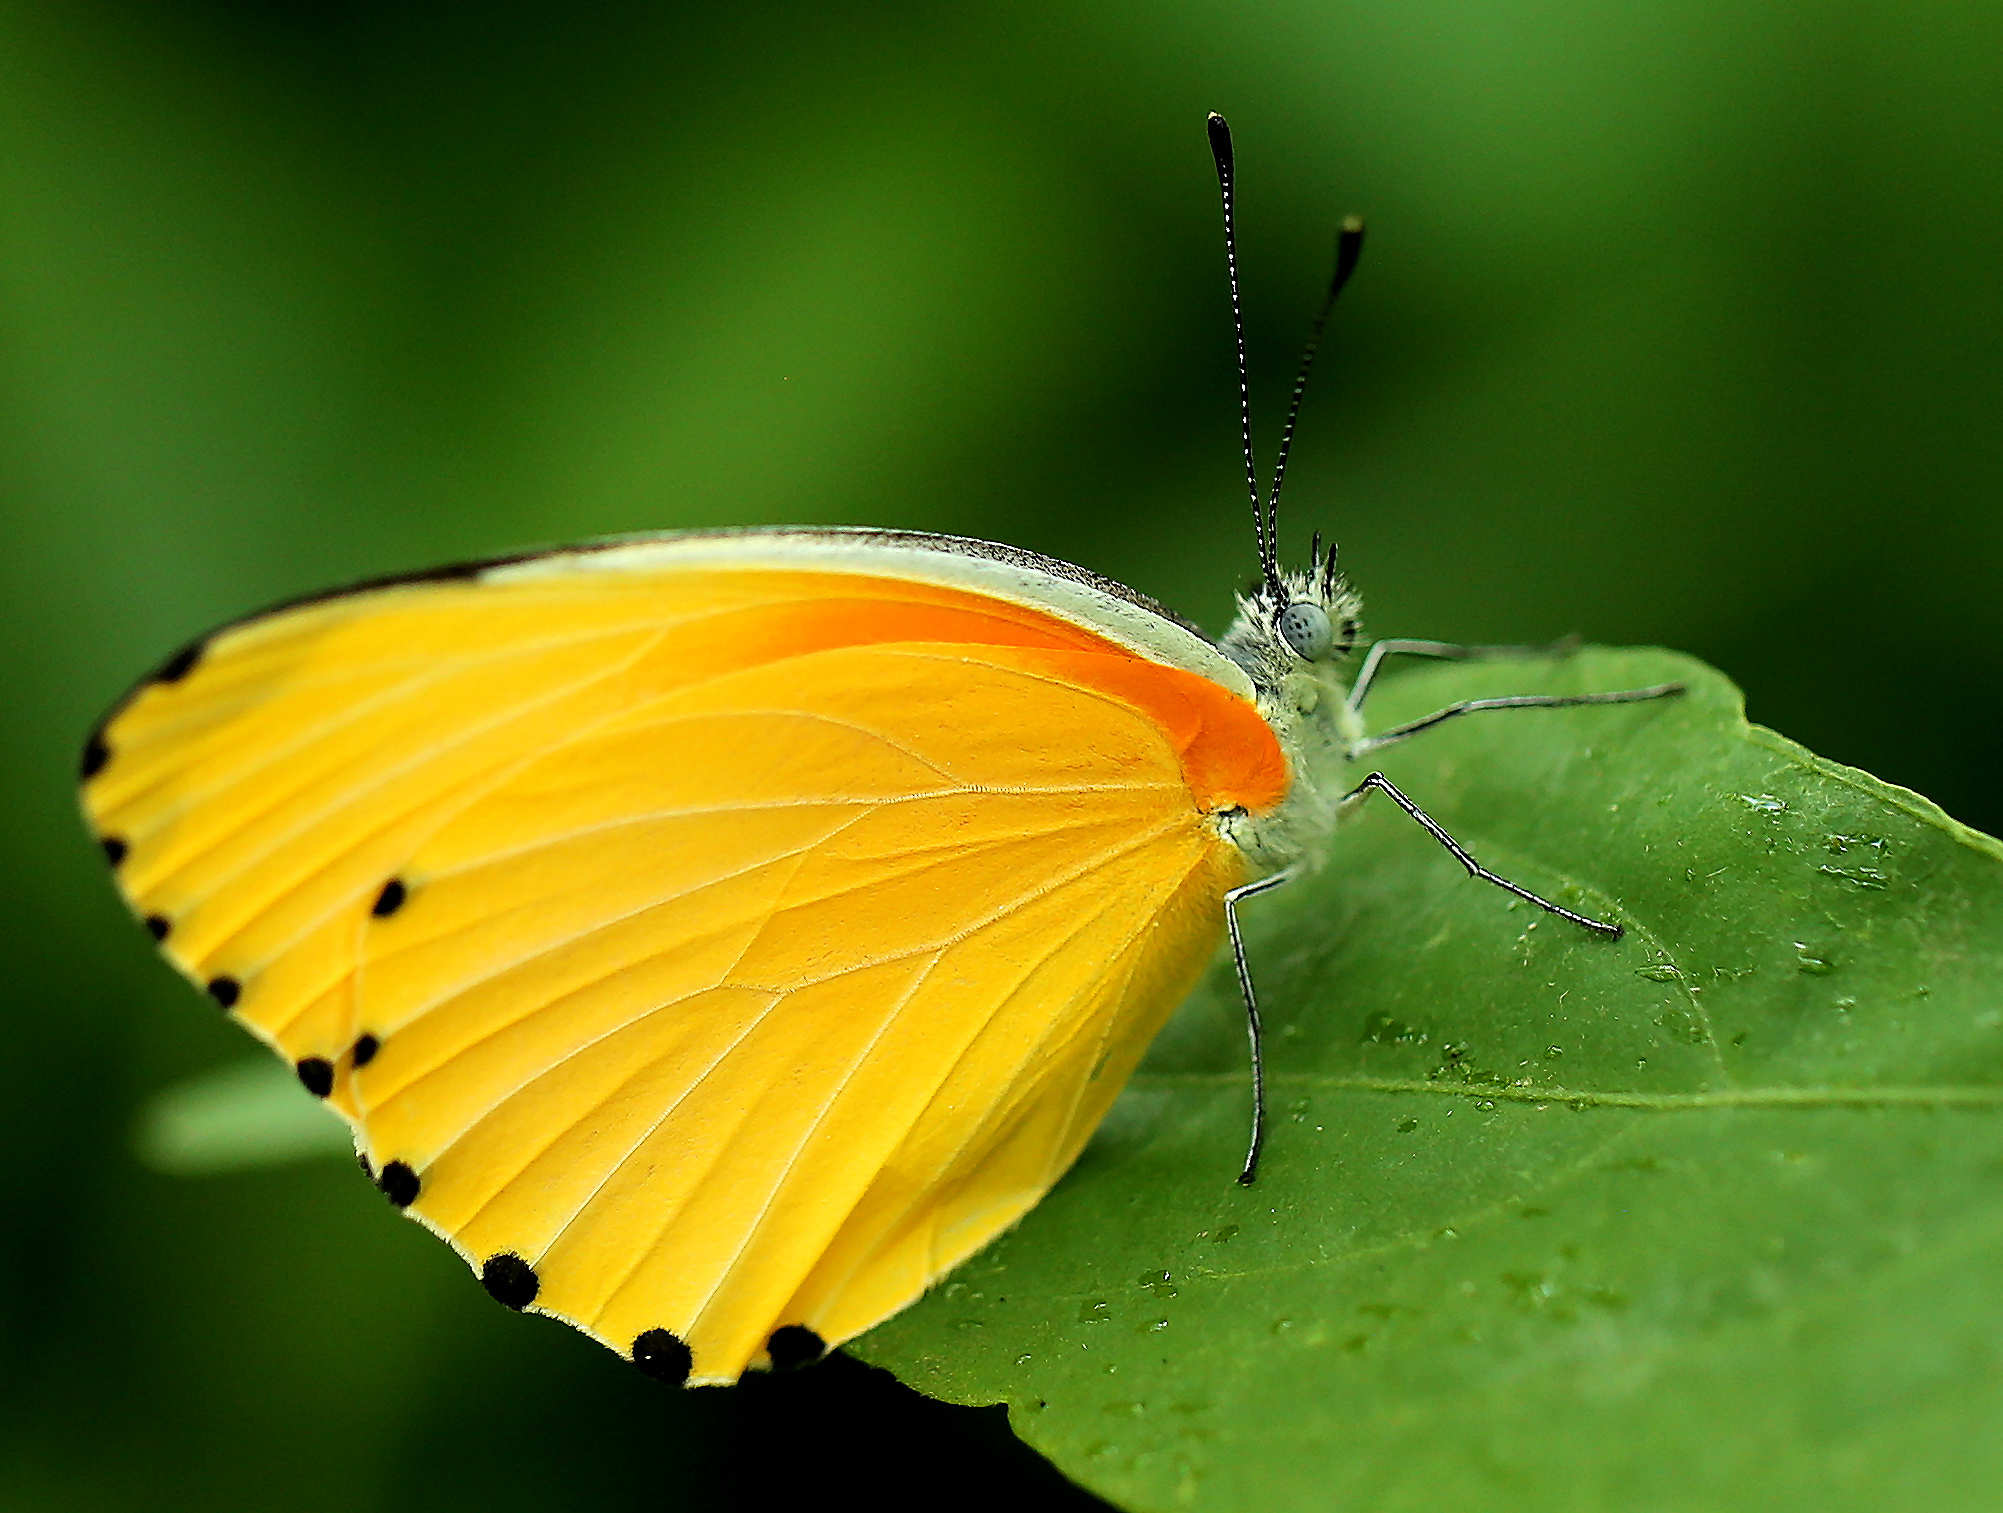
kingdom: Animalia
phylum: Arthropoda
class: Insecta
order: Lepidoptera
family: Pieridae
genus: Mylothris
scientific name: Mylothris agathina
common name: Eastern dotted border
